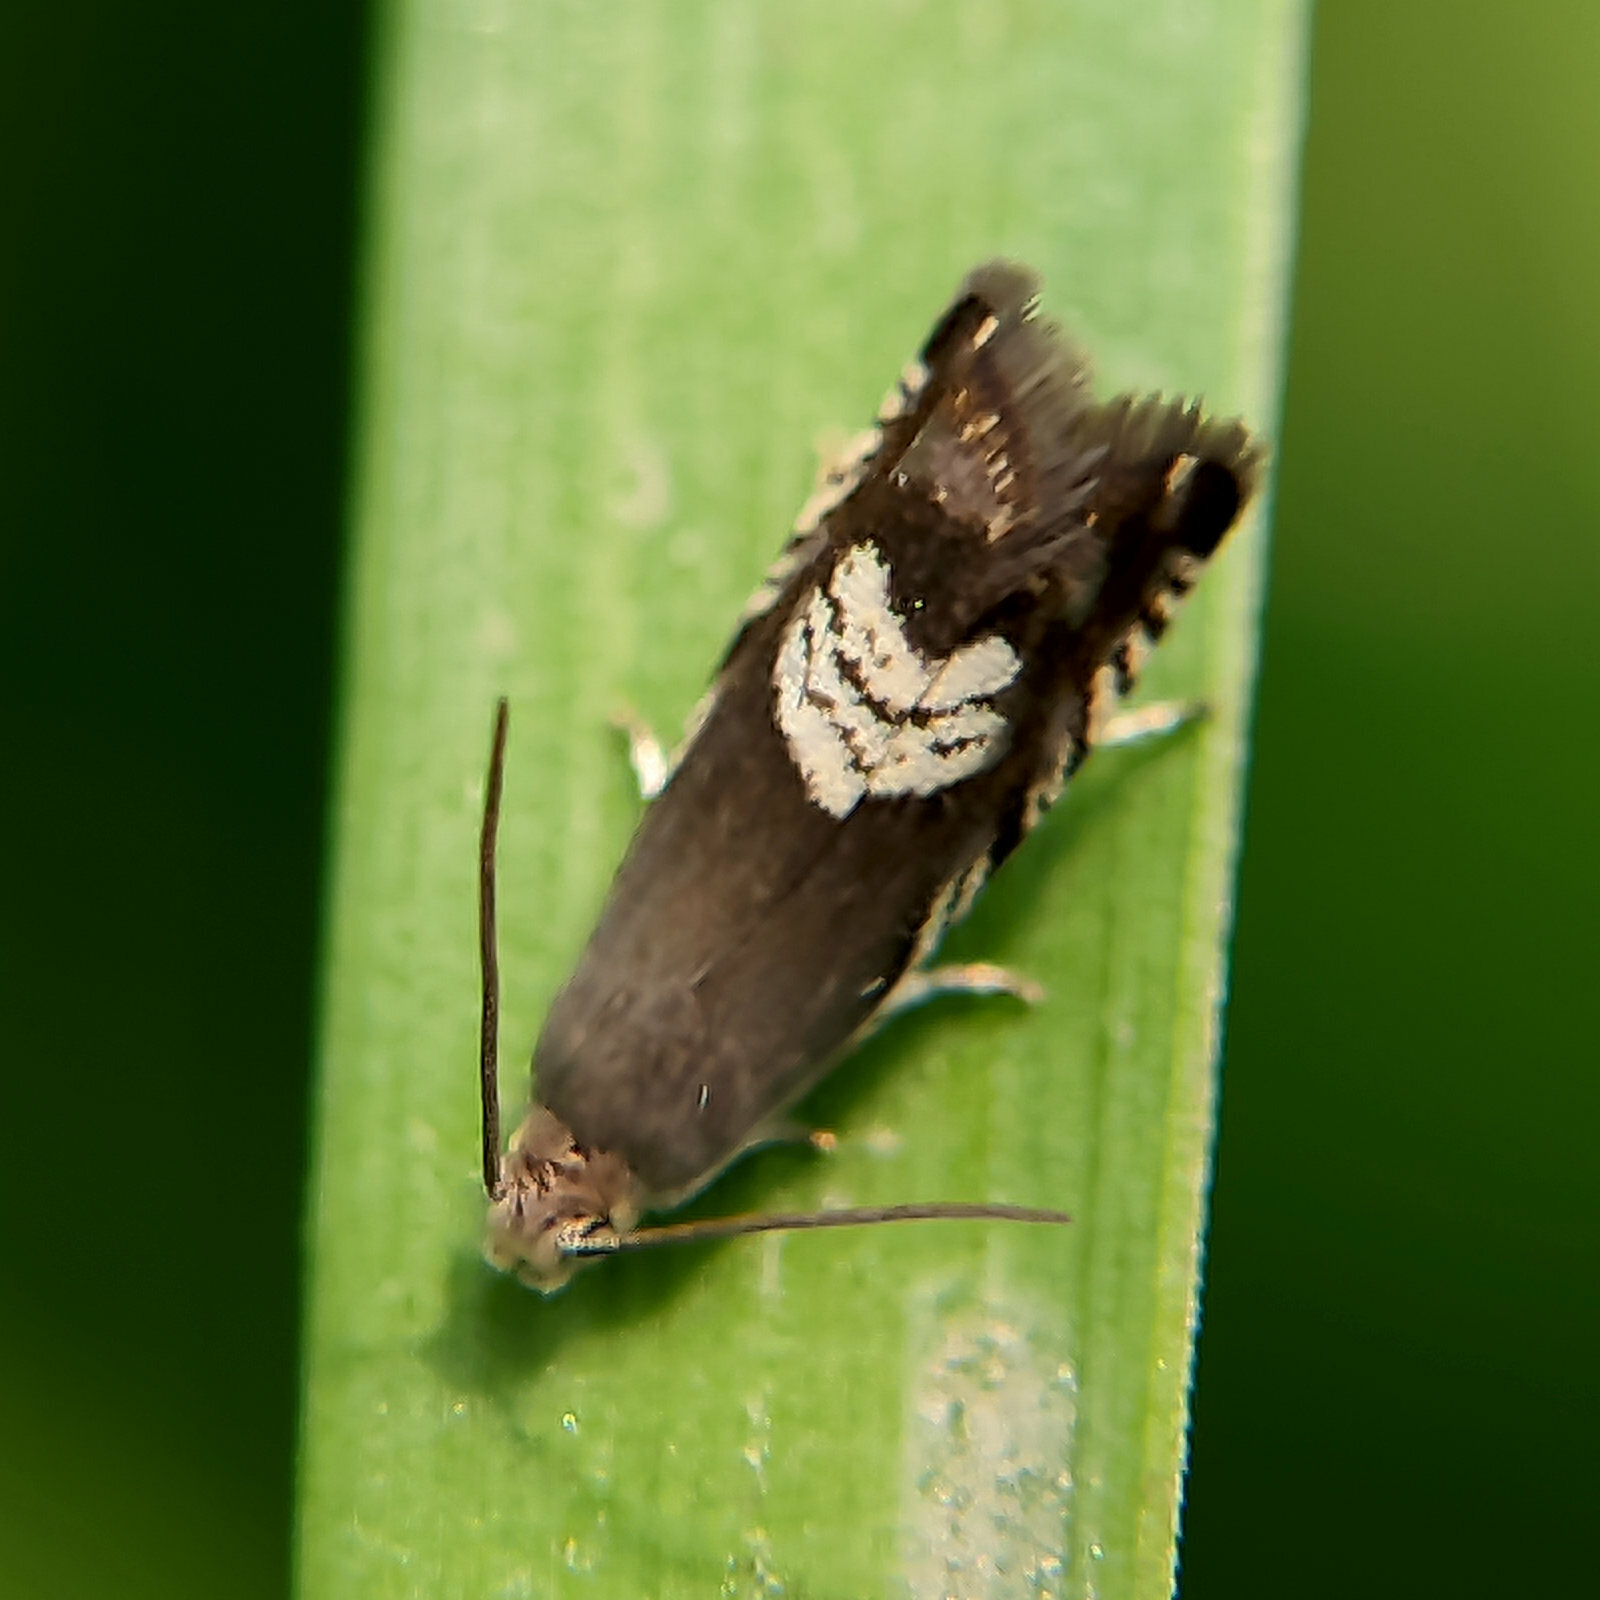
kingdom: Animalia
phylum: Arthropoda
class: Insecta
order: Lepidoptera
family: Tortricidae
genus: Grapholita
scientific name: Grapholita compositella
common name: Triple-stripe piercer
